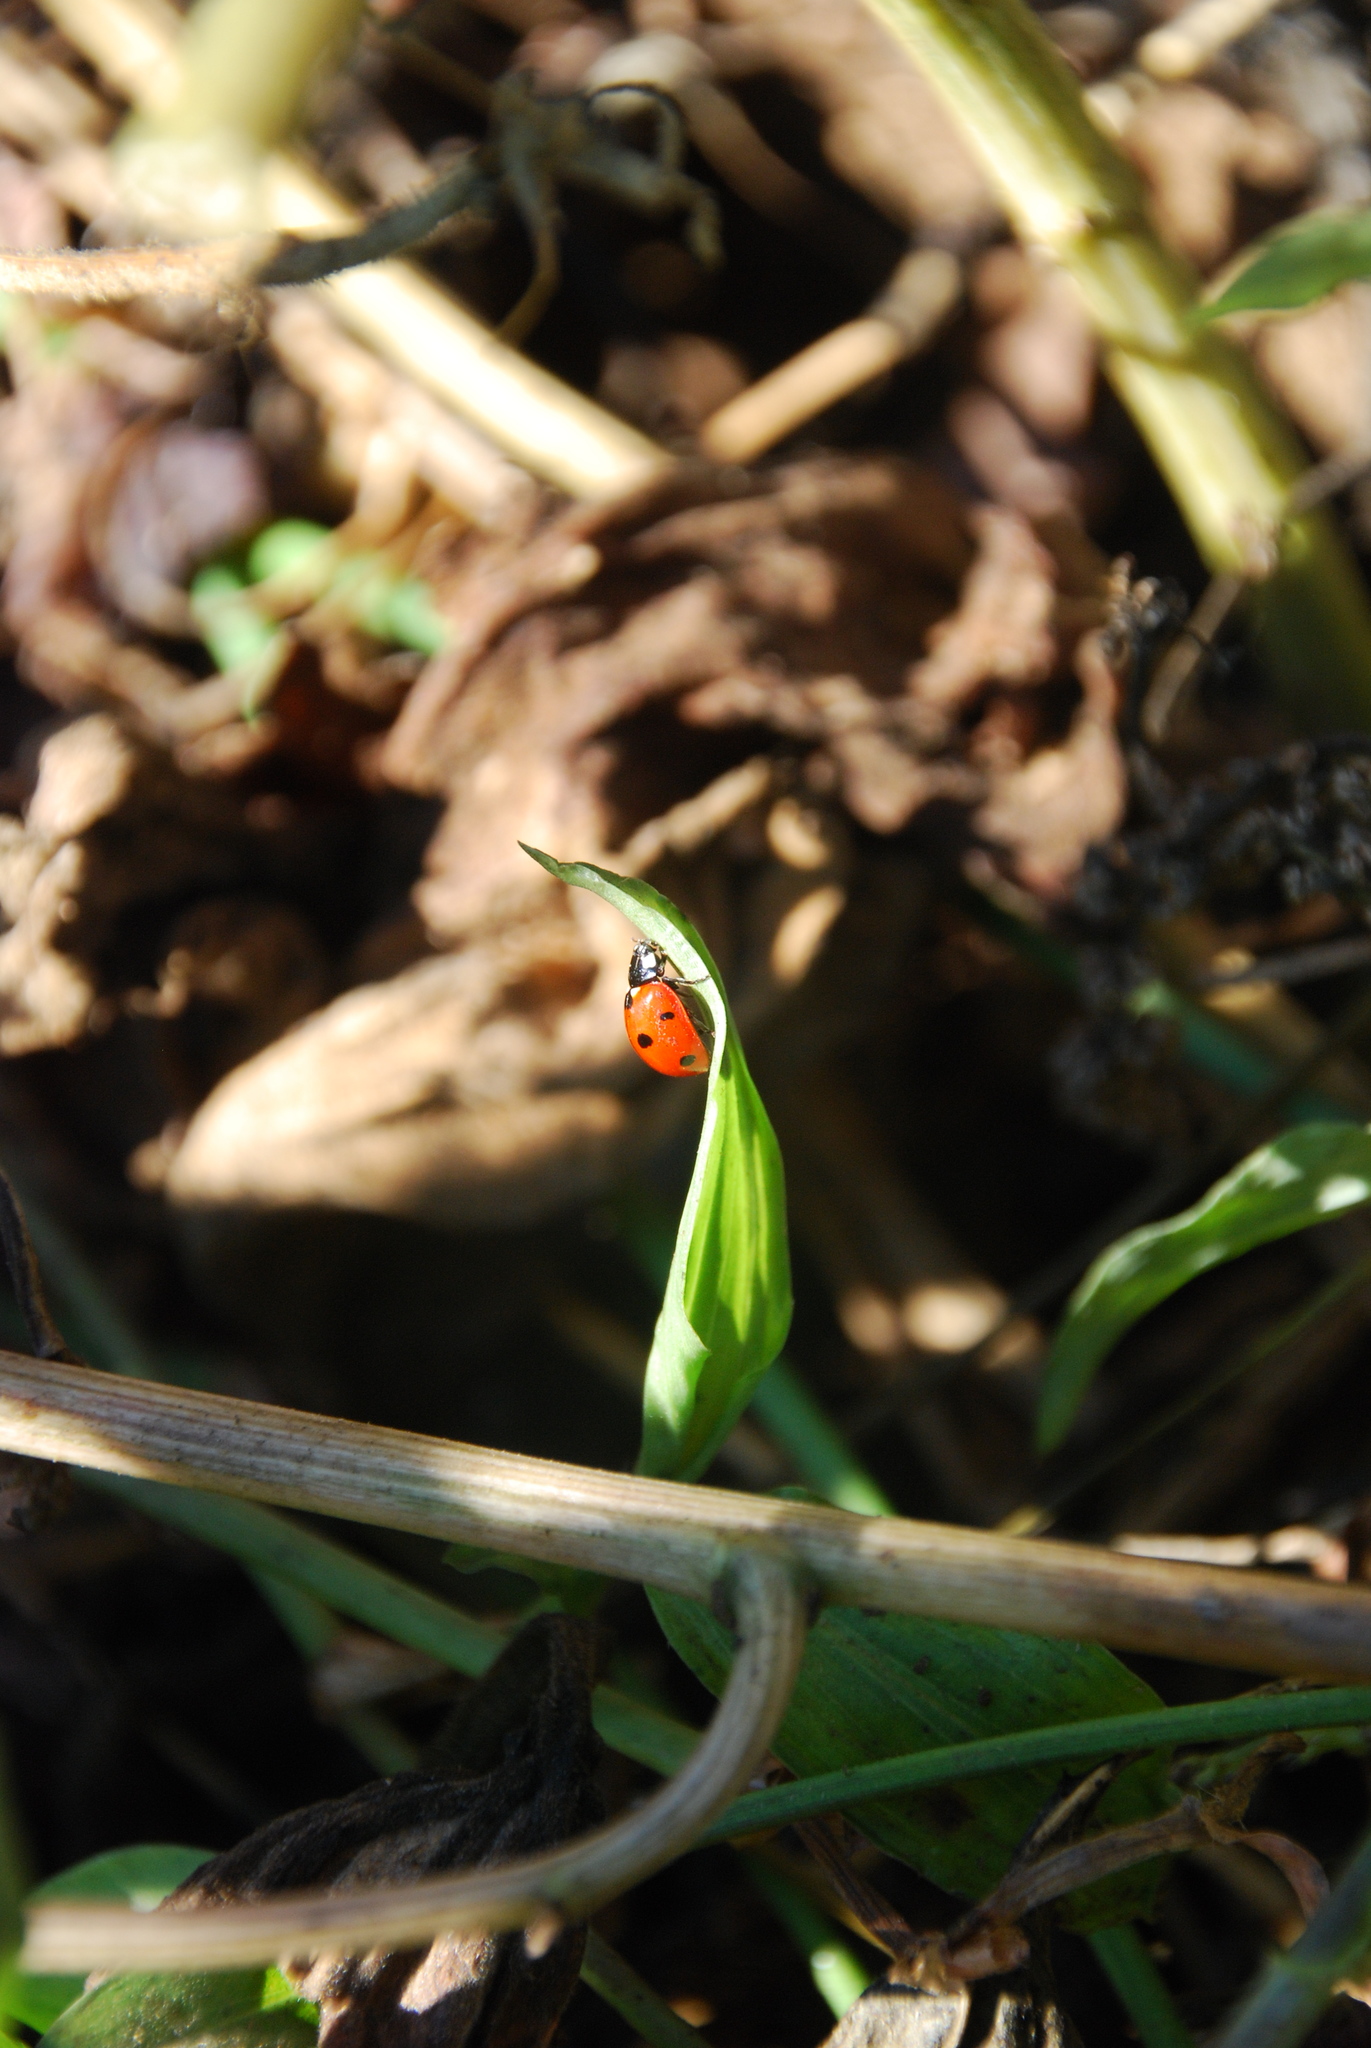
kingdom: Animalia
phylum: Arthropoda
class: Insecta
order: Coleoptera
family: Coccinellidae
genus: Coccinella
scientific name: Coccinella septempunctata
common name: Sevenspotted lady beetle
